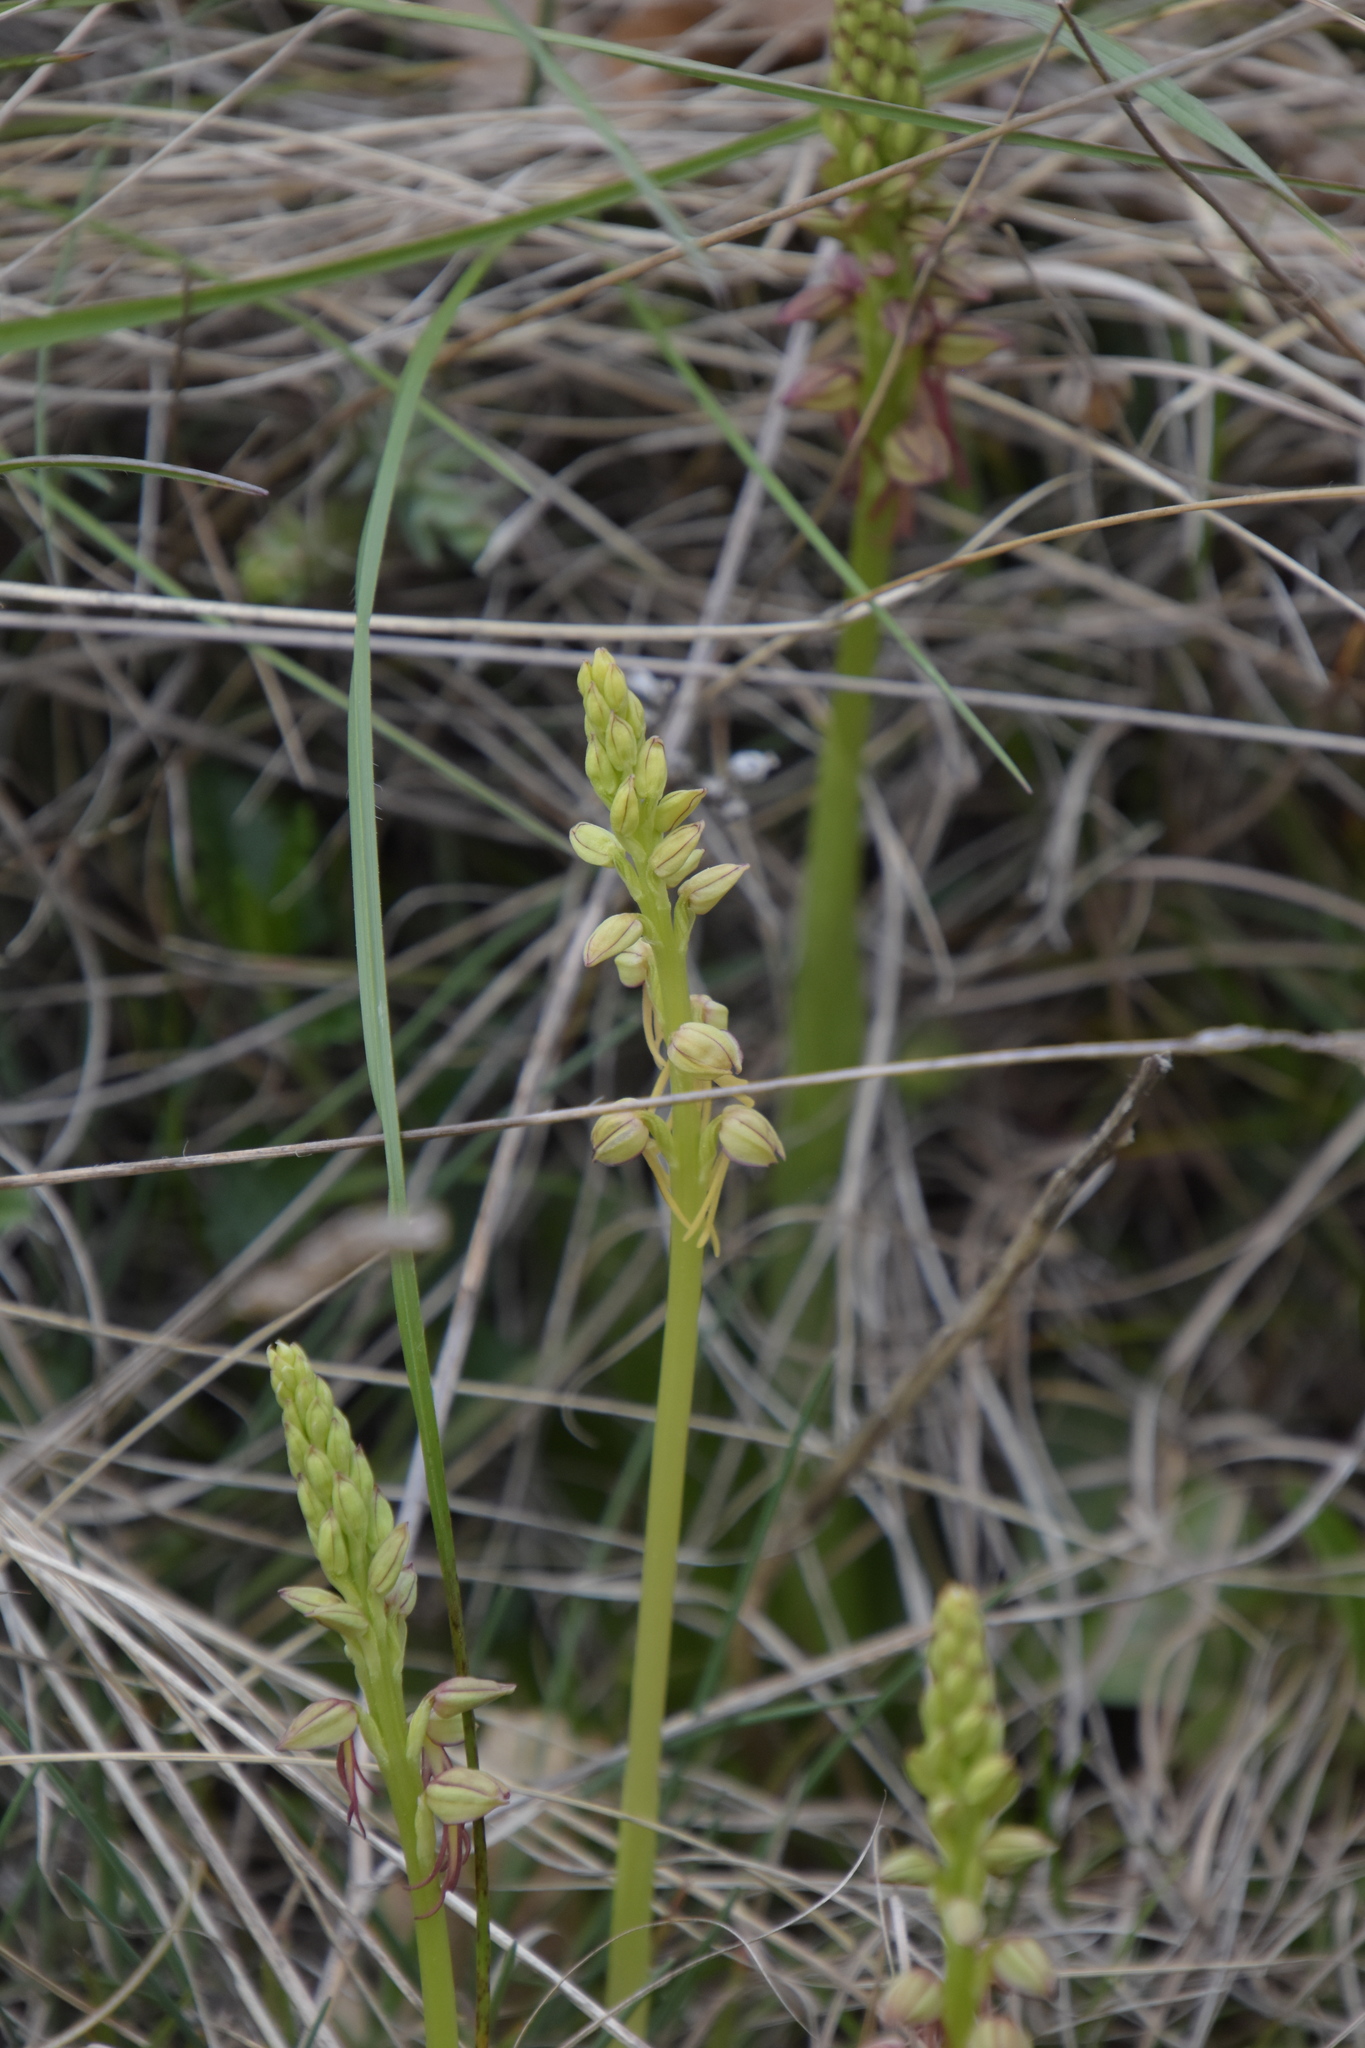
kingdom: Plantae
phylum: Tracheophyta
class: Liliopsida
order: Asparagales
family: Orchidaceae
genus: Orchis
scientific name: Orchis anthropophora
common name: Man orchid
